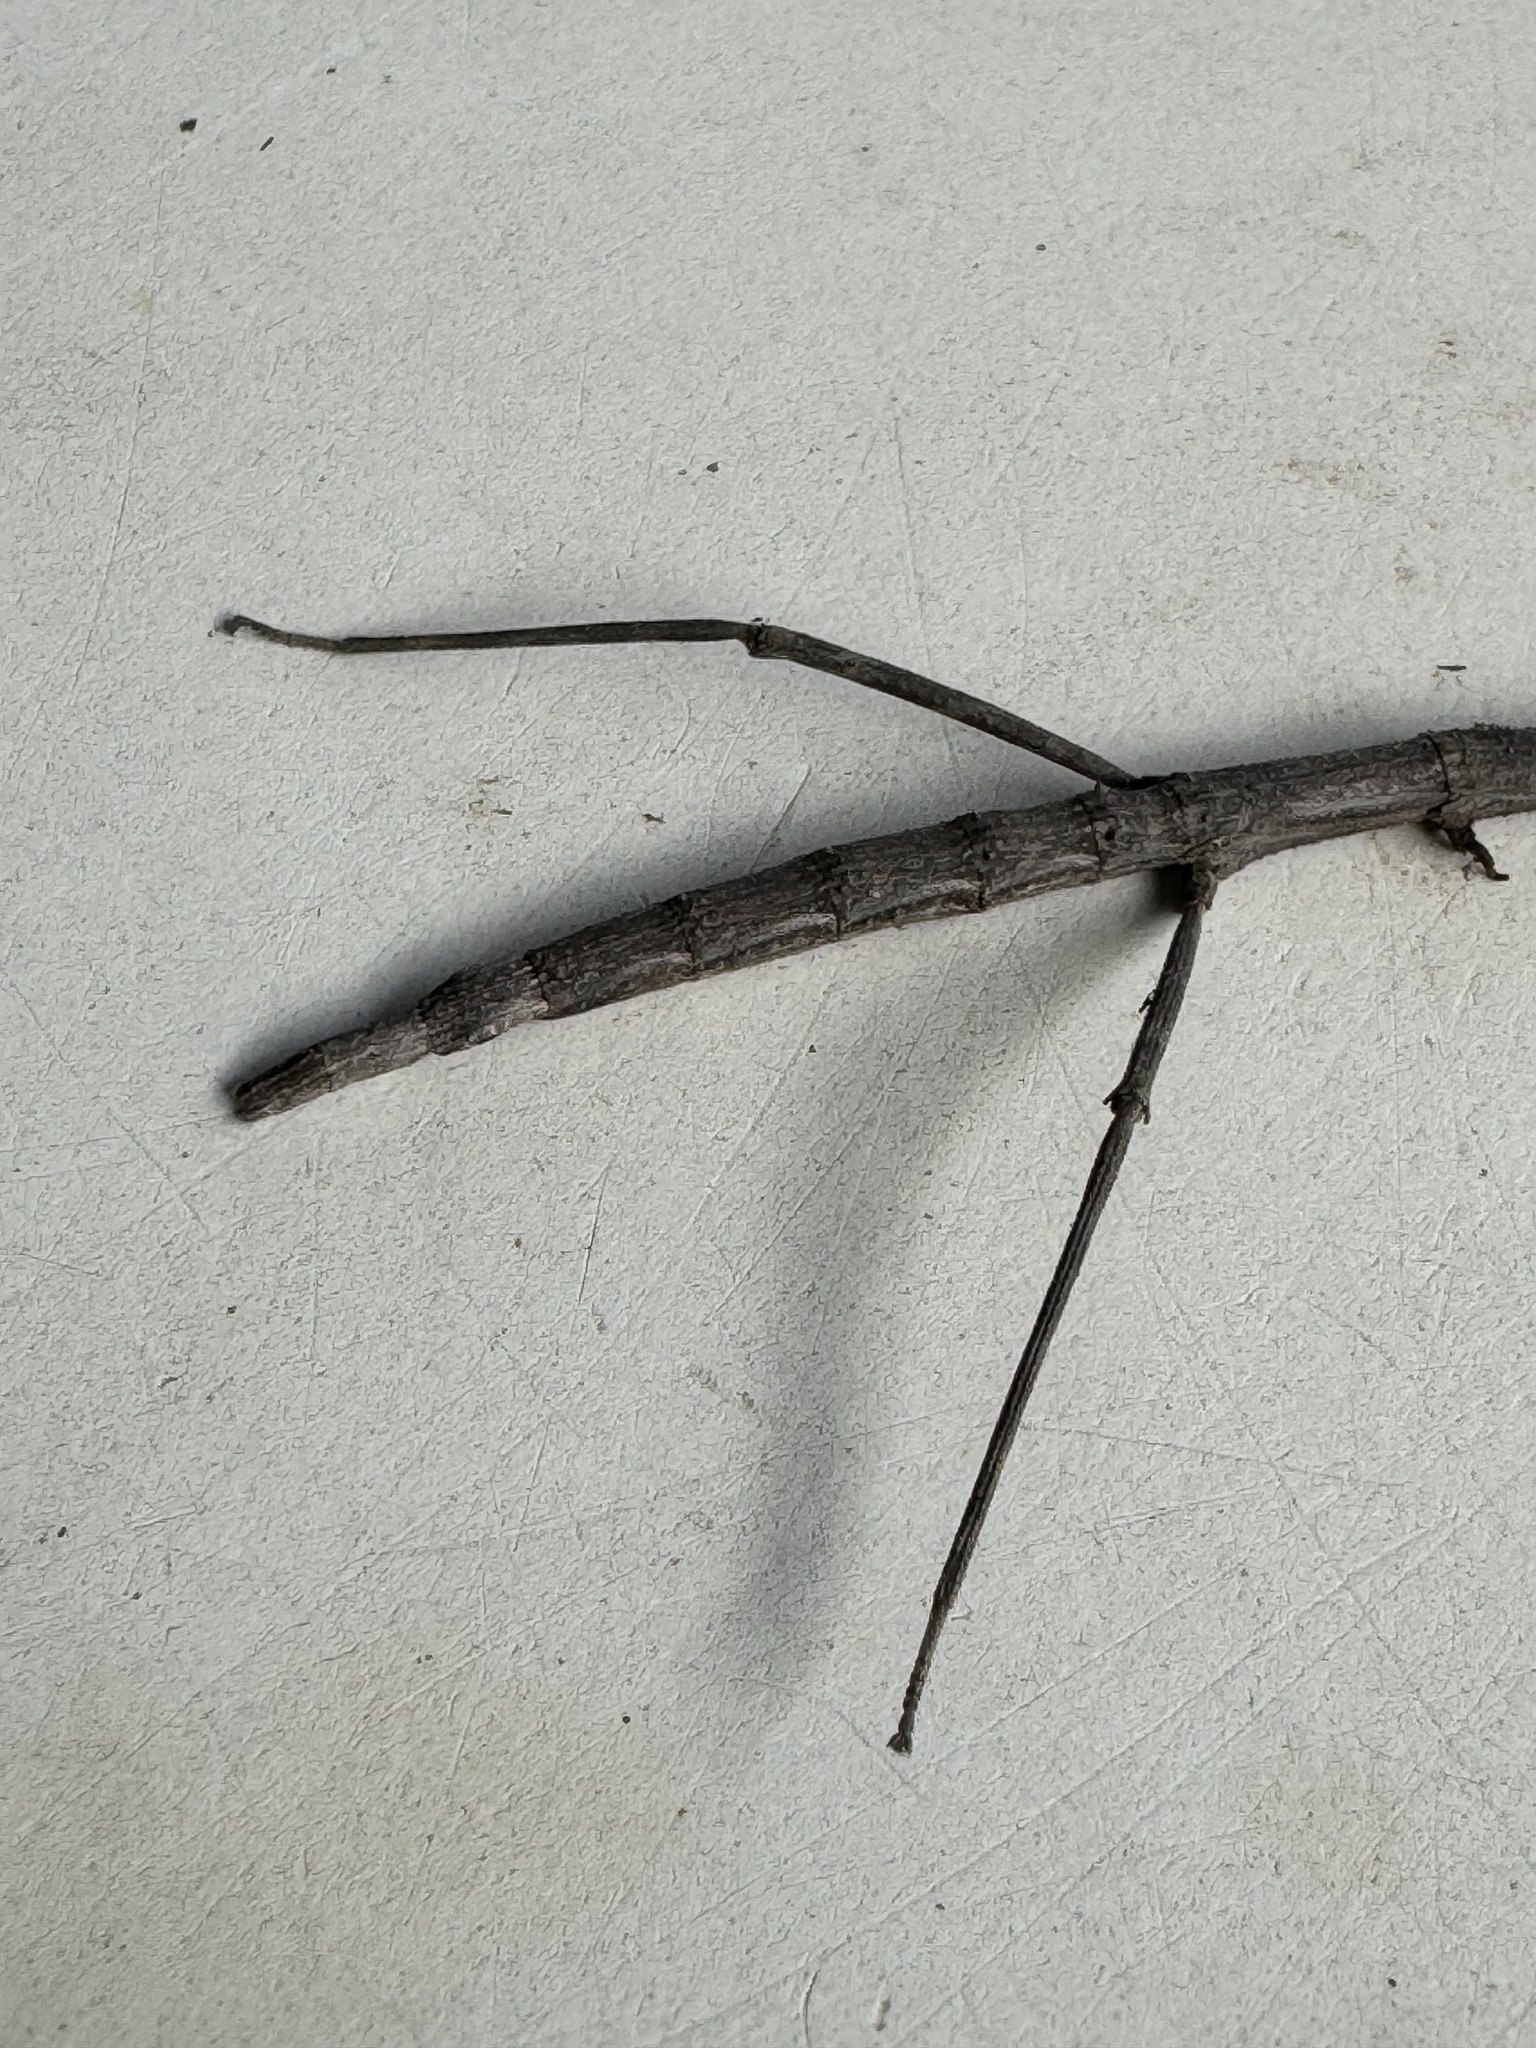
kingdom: Animalia
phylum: Arthropoda
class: Insecta
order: Phasmida
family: Diapheromeridae
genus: Pseudosermyle
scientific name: Pseudosermyle catalinae
